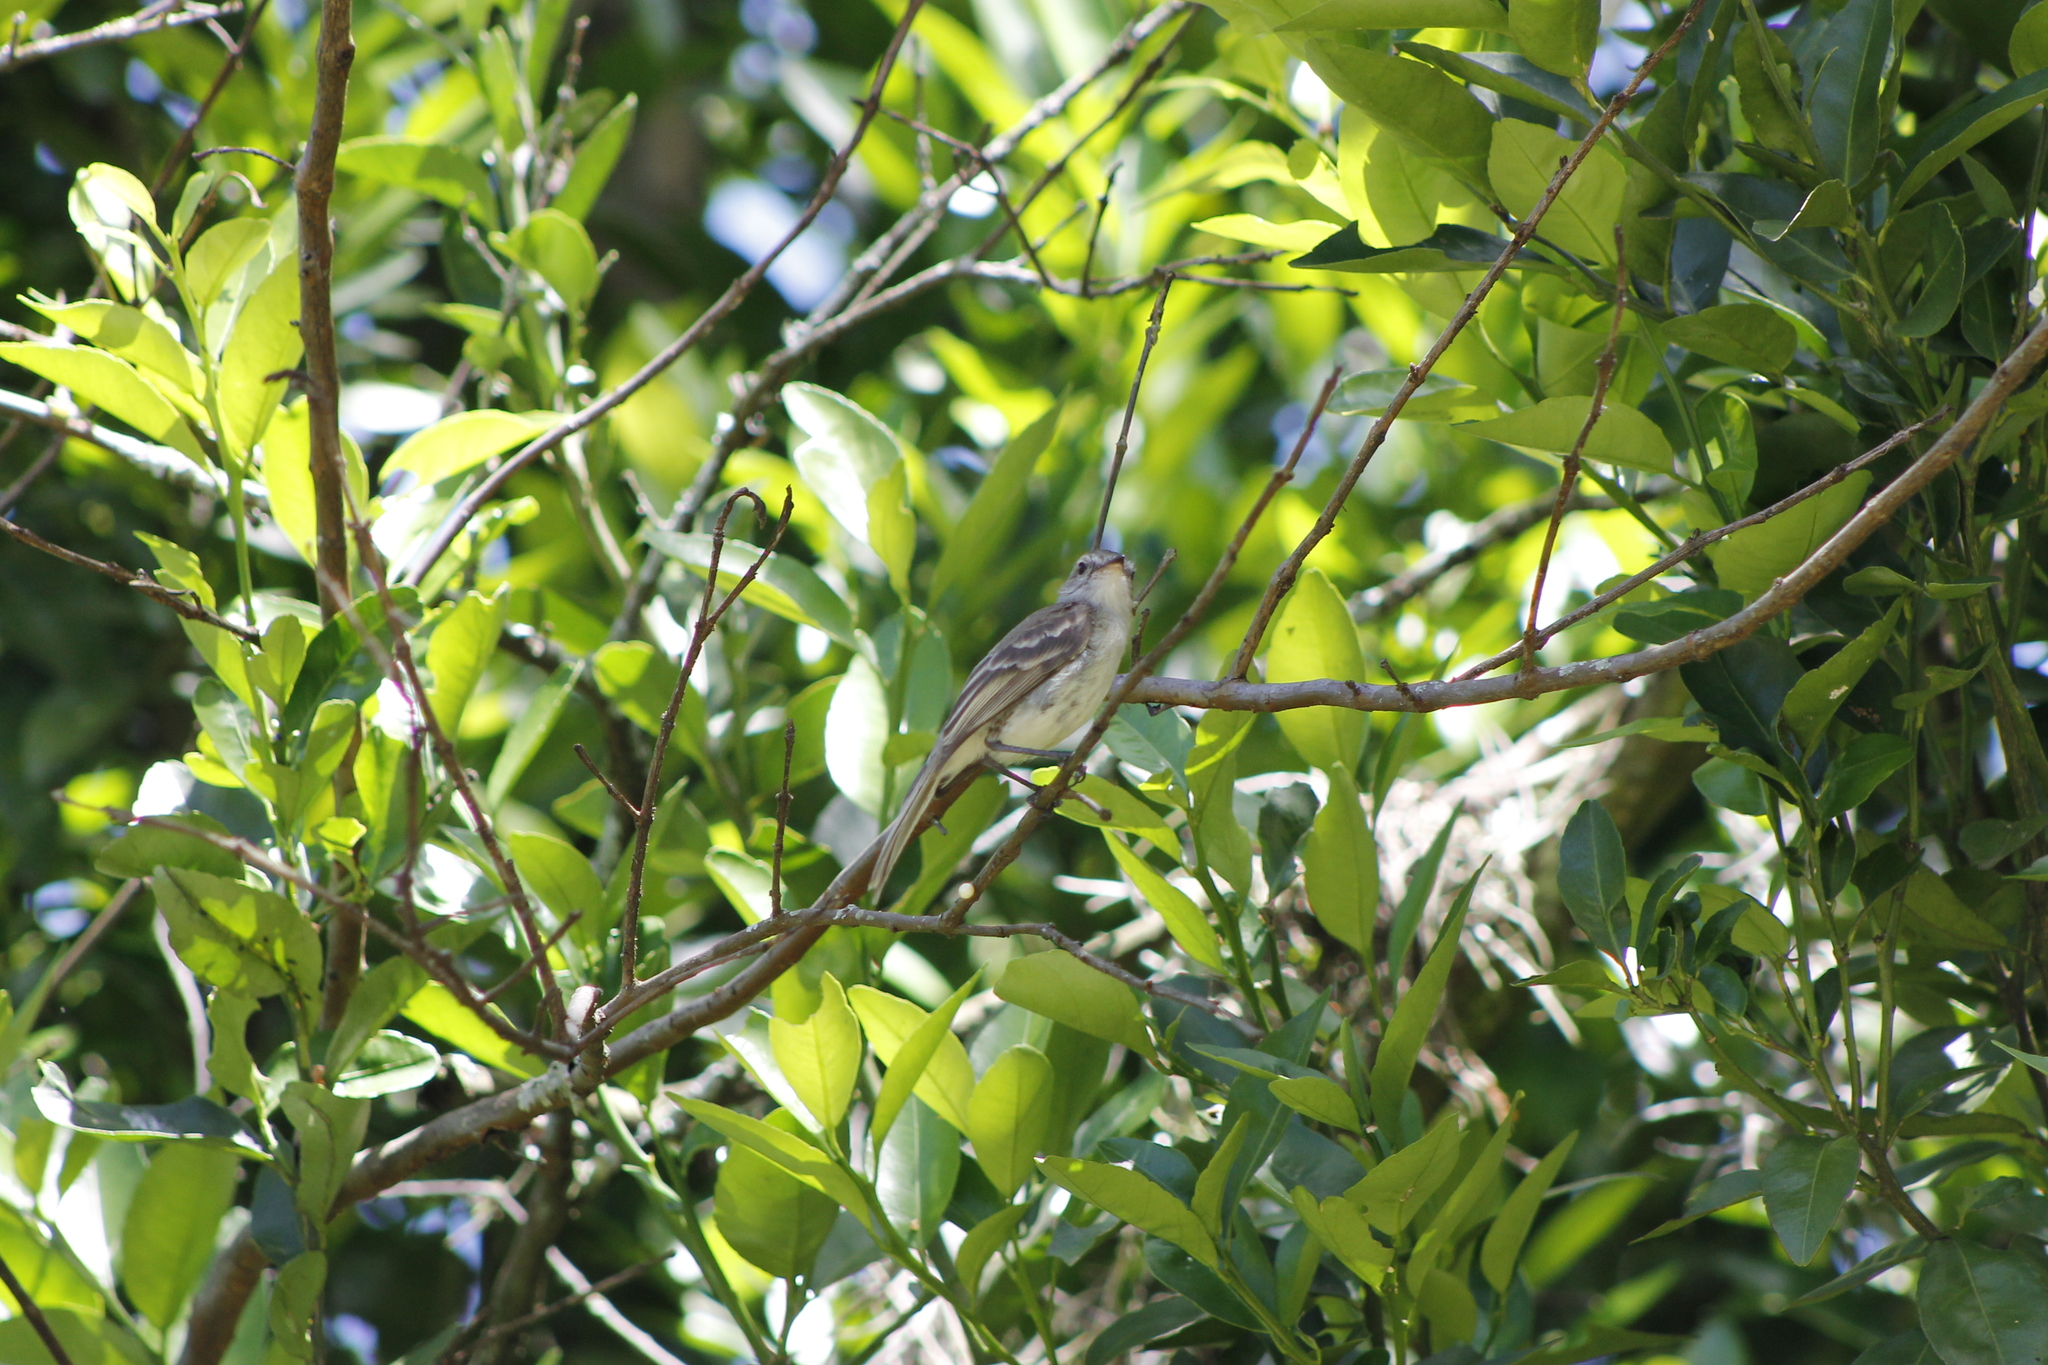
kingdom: Animalia
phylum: Chordata
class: Aves
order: Passeriformes
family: Tyrannidae
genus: Phaeomyias
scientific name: Phaeomyias murina
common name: Mouse-colored tyrannulet
